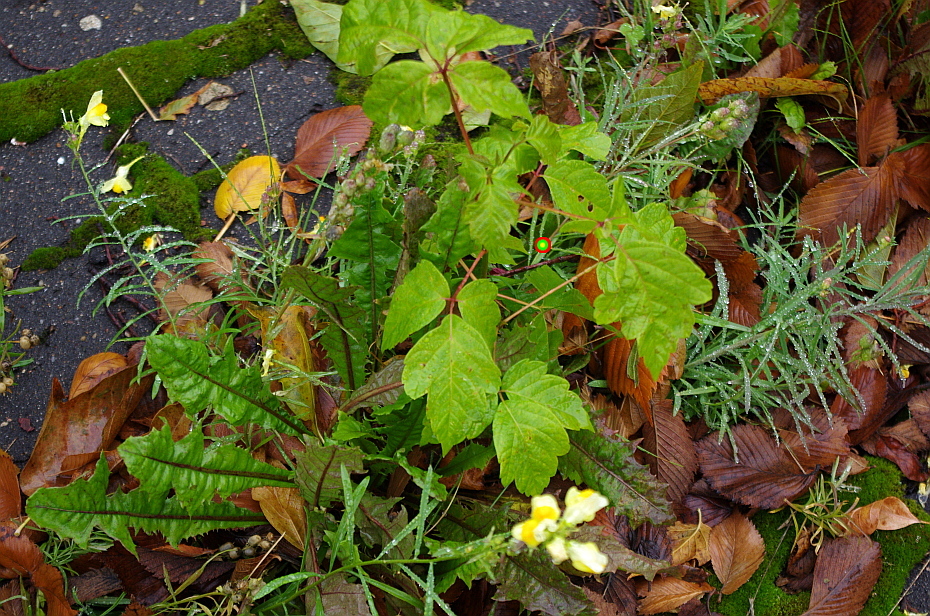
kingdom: Plantae
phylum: Tracheophyta
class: Magnoliopsida
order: Sapindales
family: Sapindaceae
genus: Acer
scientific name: Acer negundo
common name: Ashleaf maple
